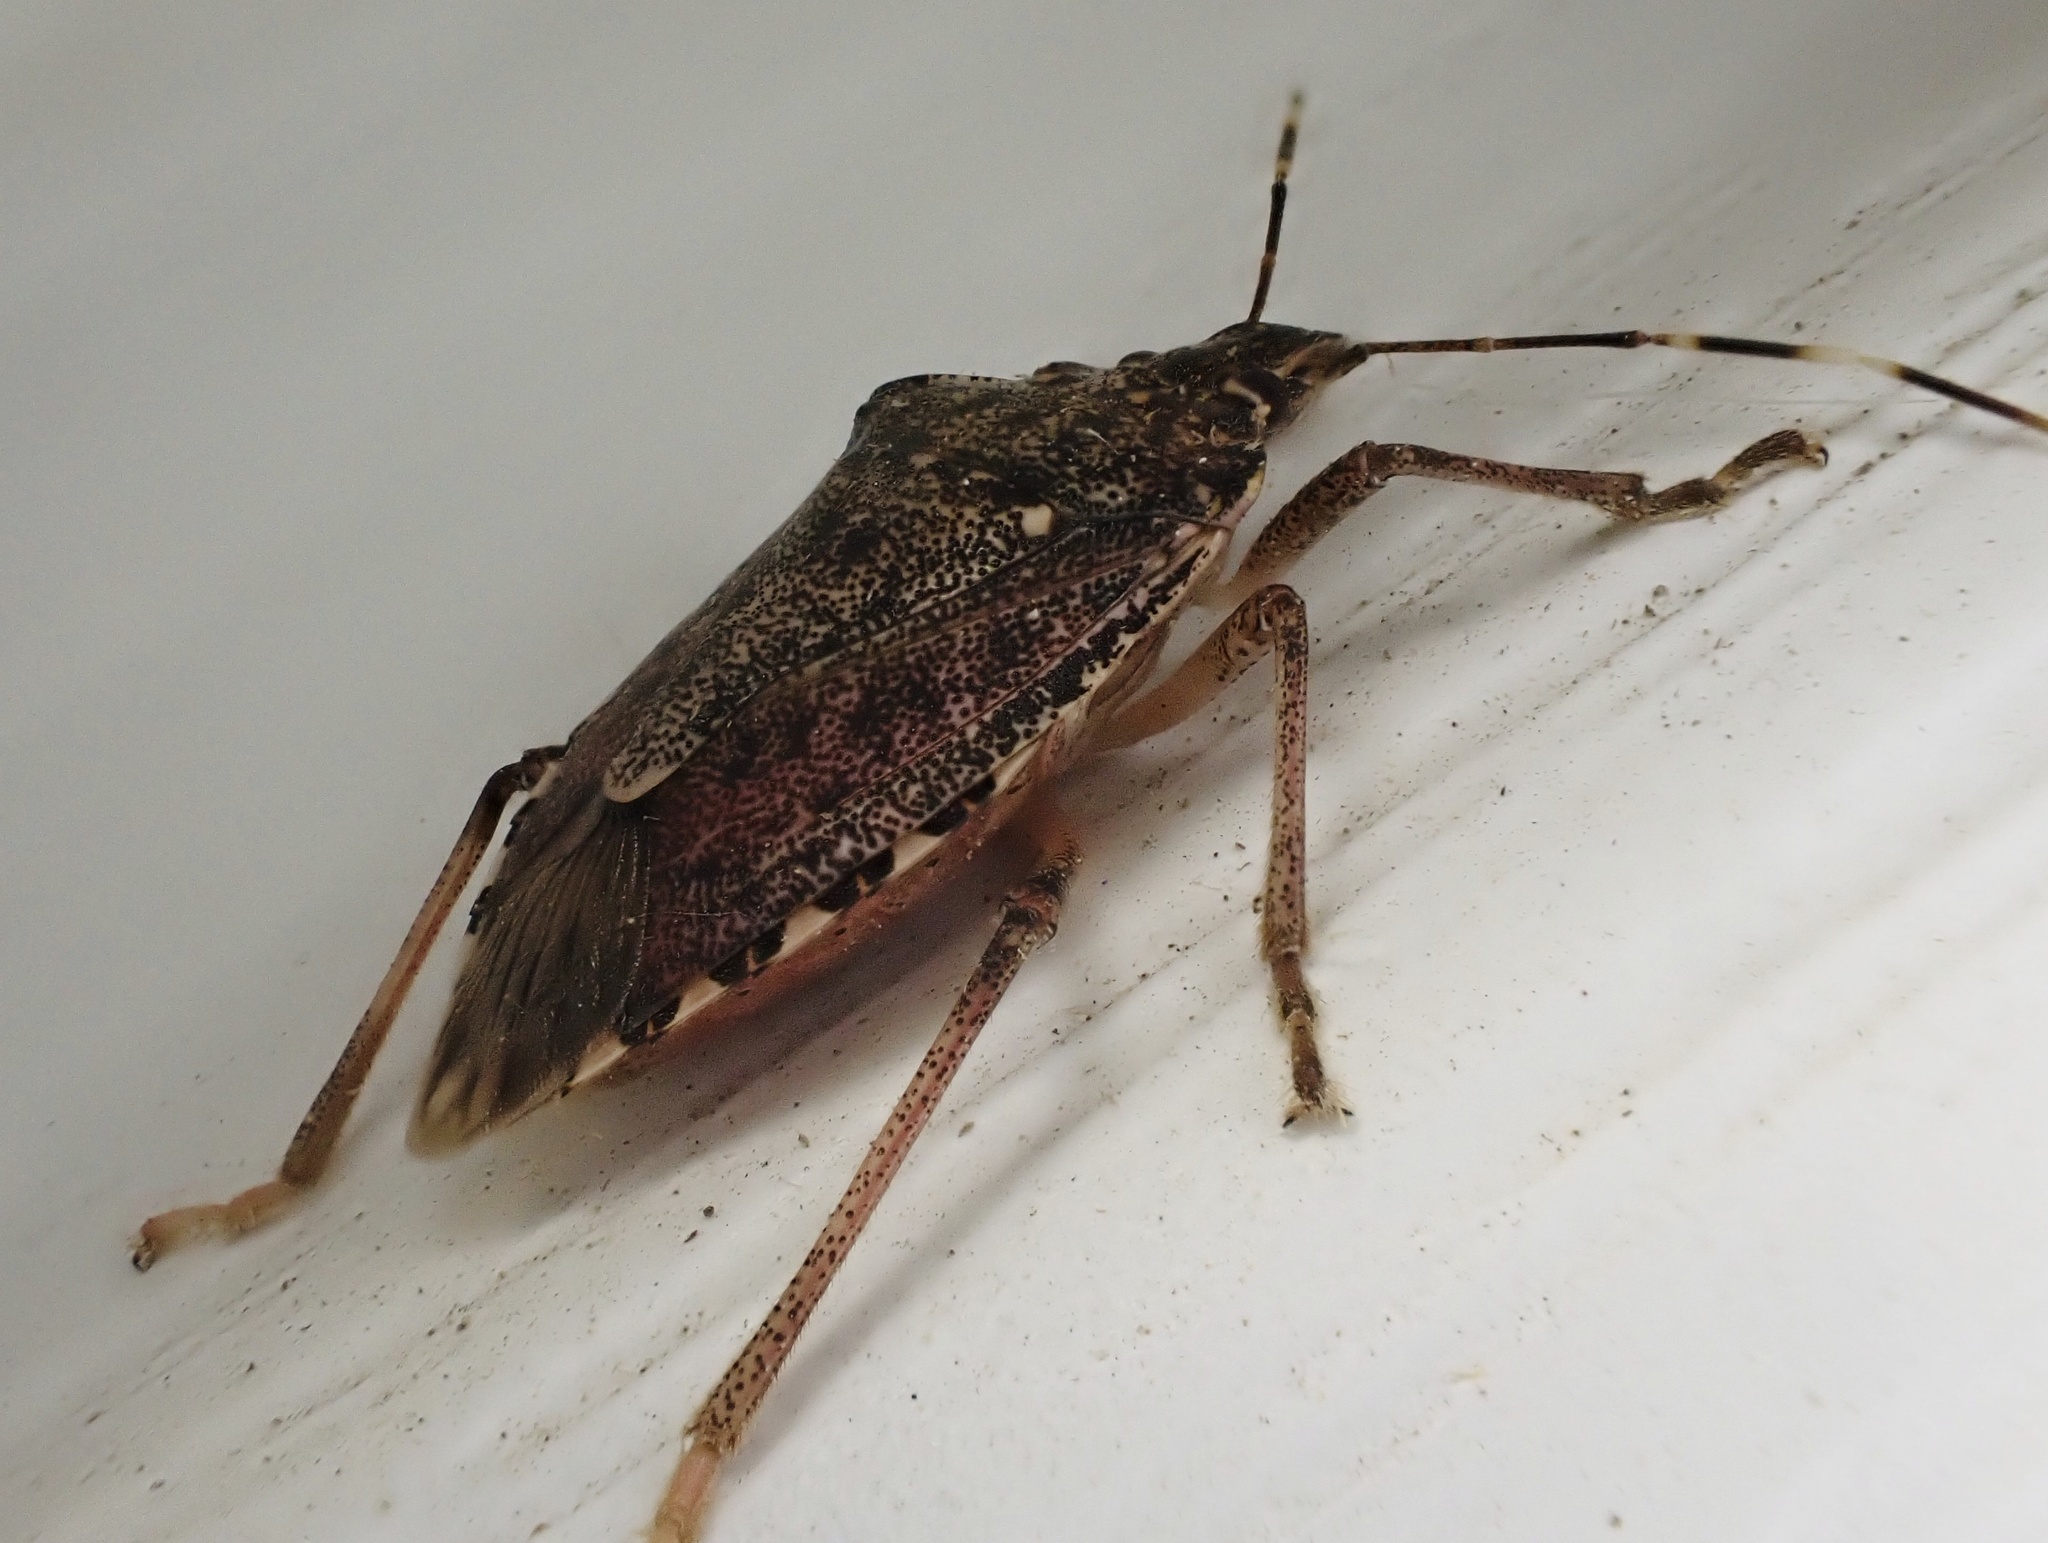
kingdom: Animalia
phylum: Arthropoda
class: Insecta
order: Hemiptera
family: Pentatomidae
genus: Halyomorpha
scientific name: Halyomorpha halys
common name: Brown marmorated stink bug
